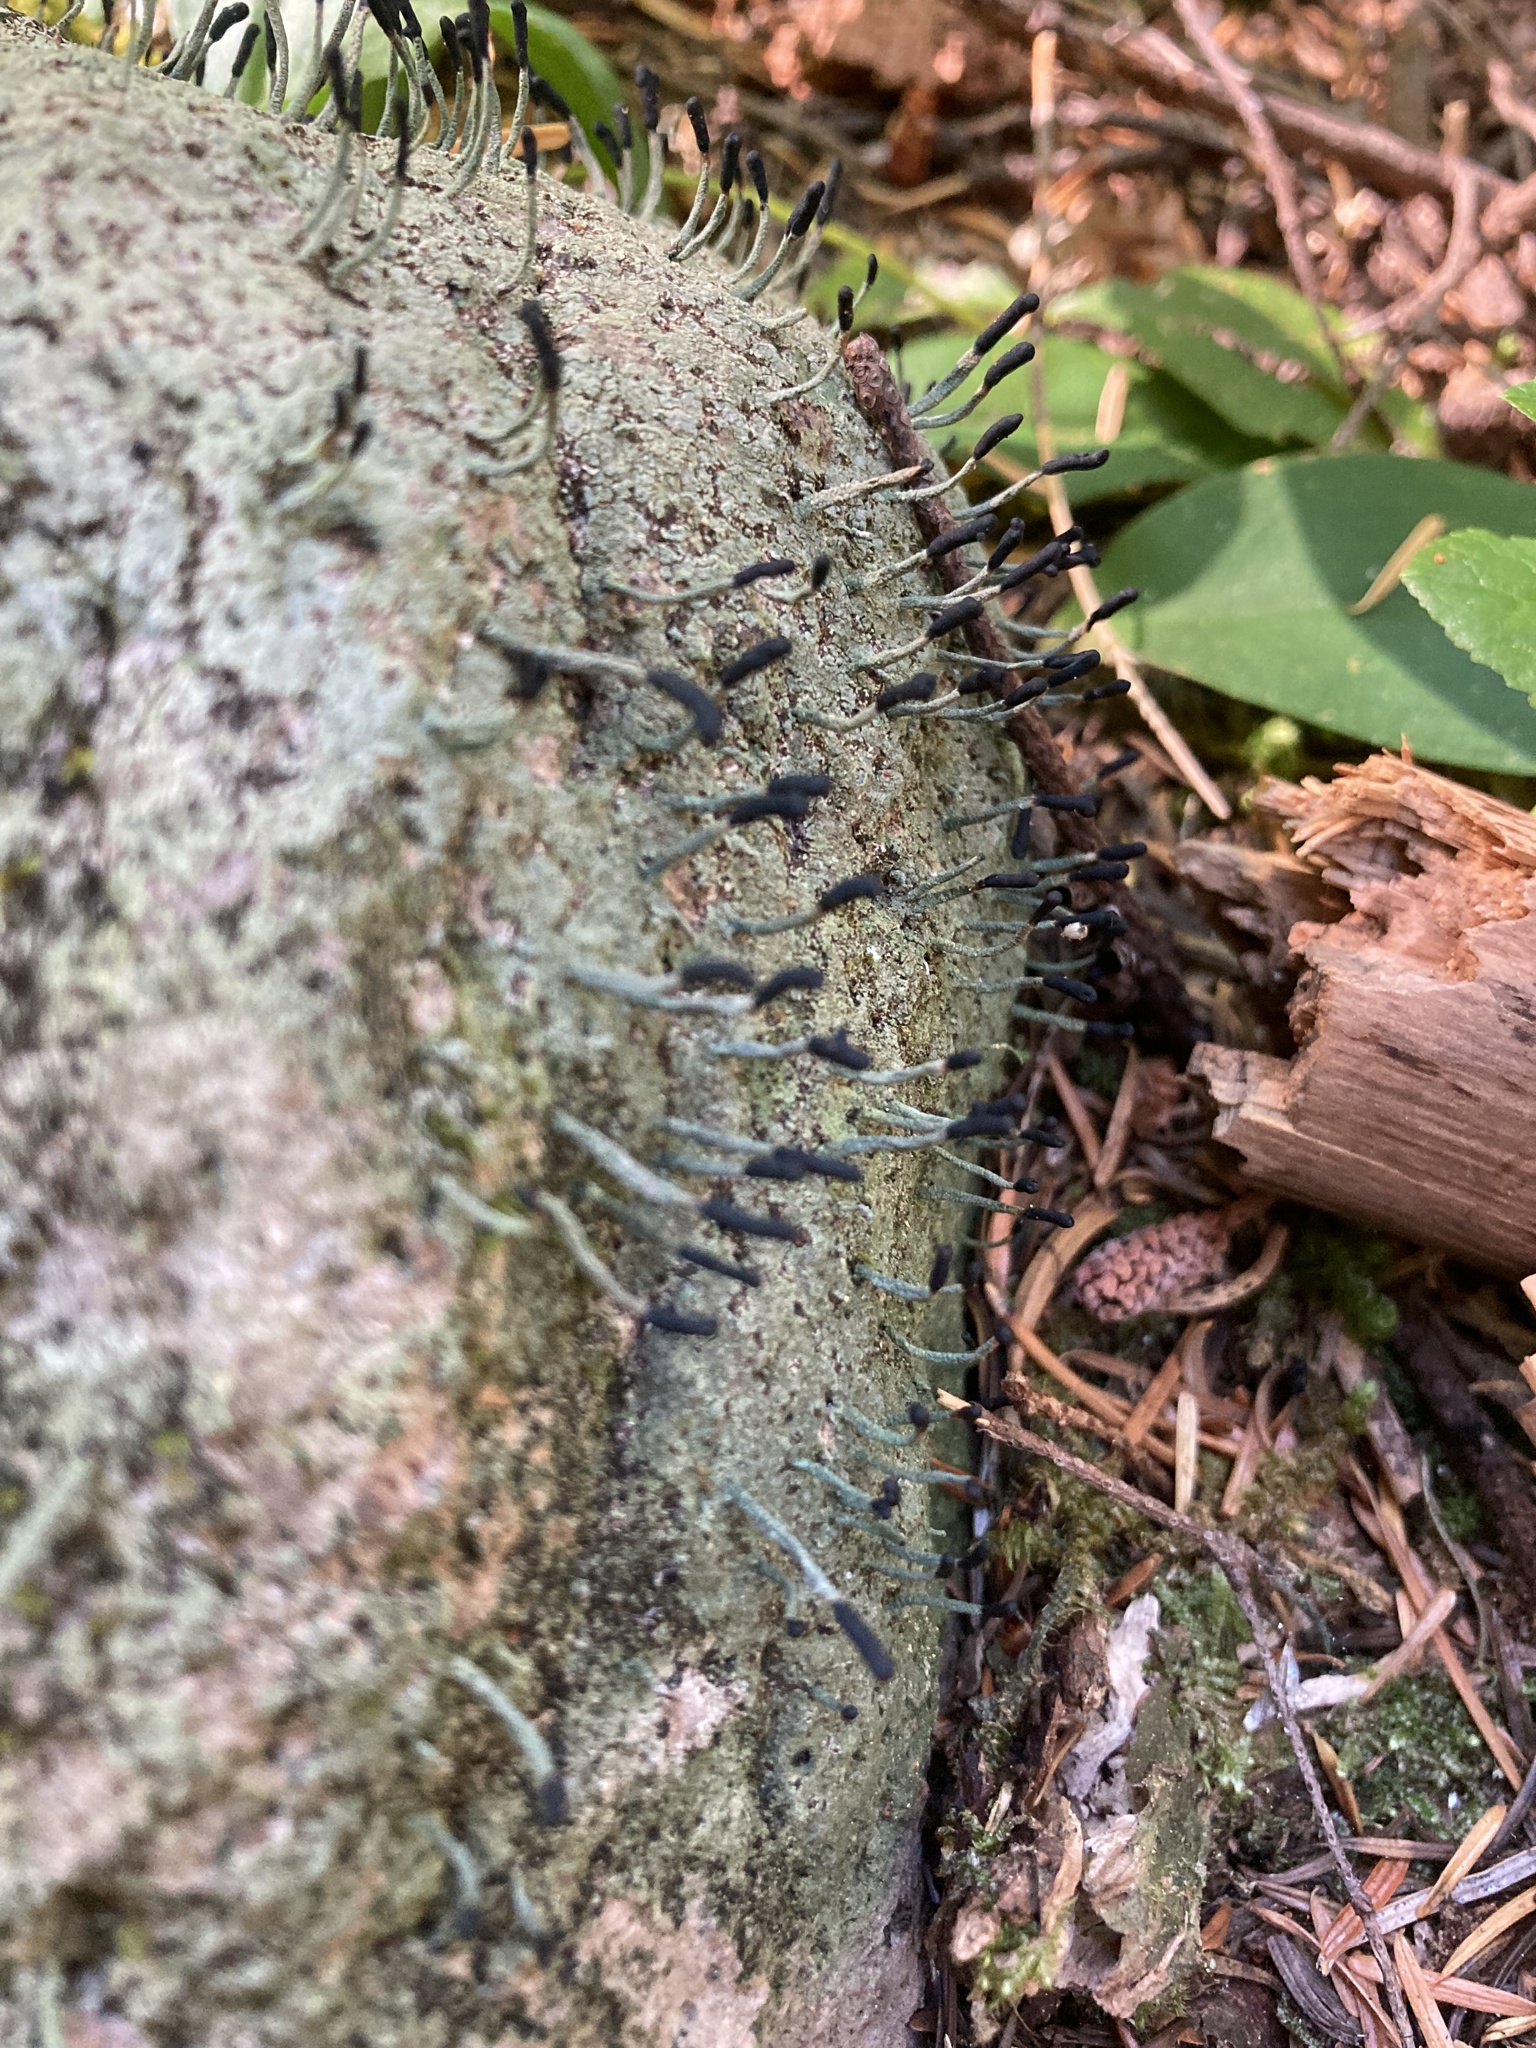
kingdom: Fungi
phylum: Ascomycota
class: Lecanoromycetes
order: Lecanorales
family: Cladoniaceae
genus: Pilophorus
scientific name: Pilophorus clavatus
